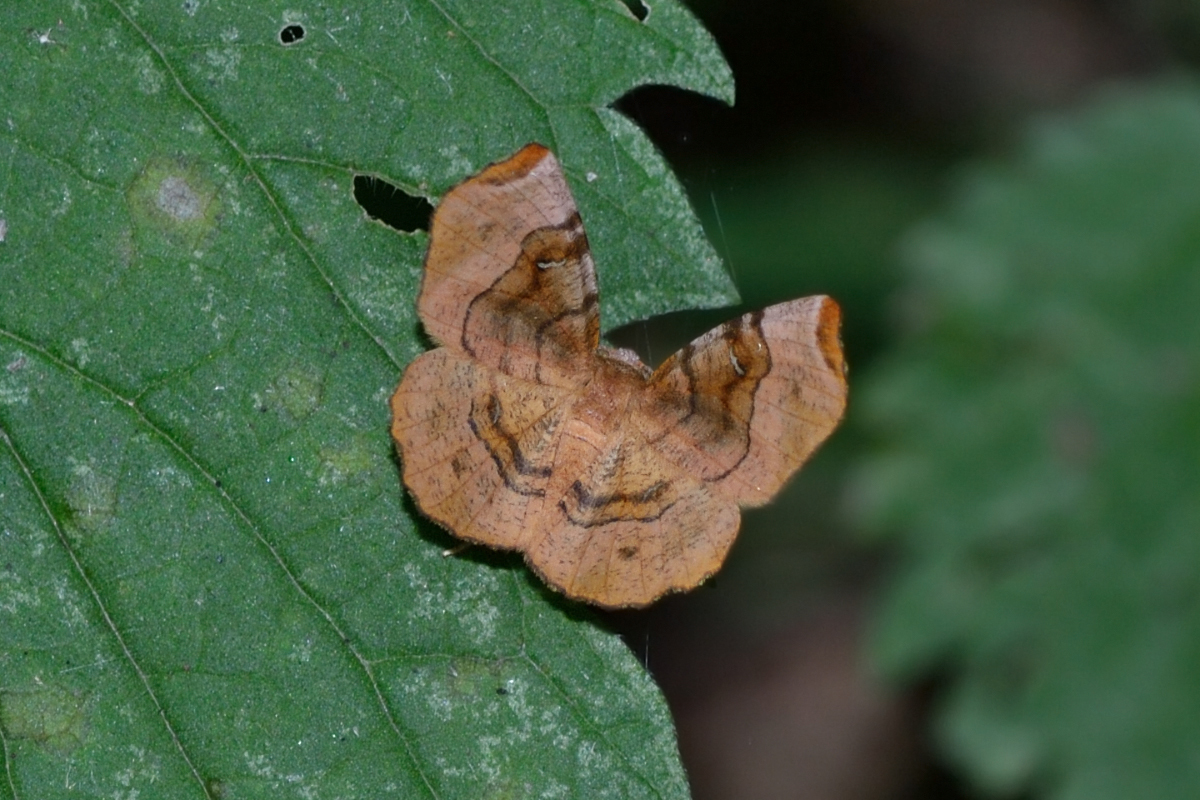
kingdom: Animalia
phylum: Arthropoda
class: Insecta
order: Lepidoptera
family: Geometridae
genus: Selenia
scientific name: Selenia tetralunaria
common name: Purple thorn
